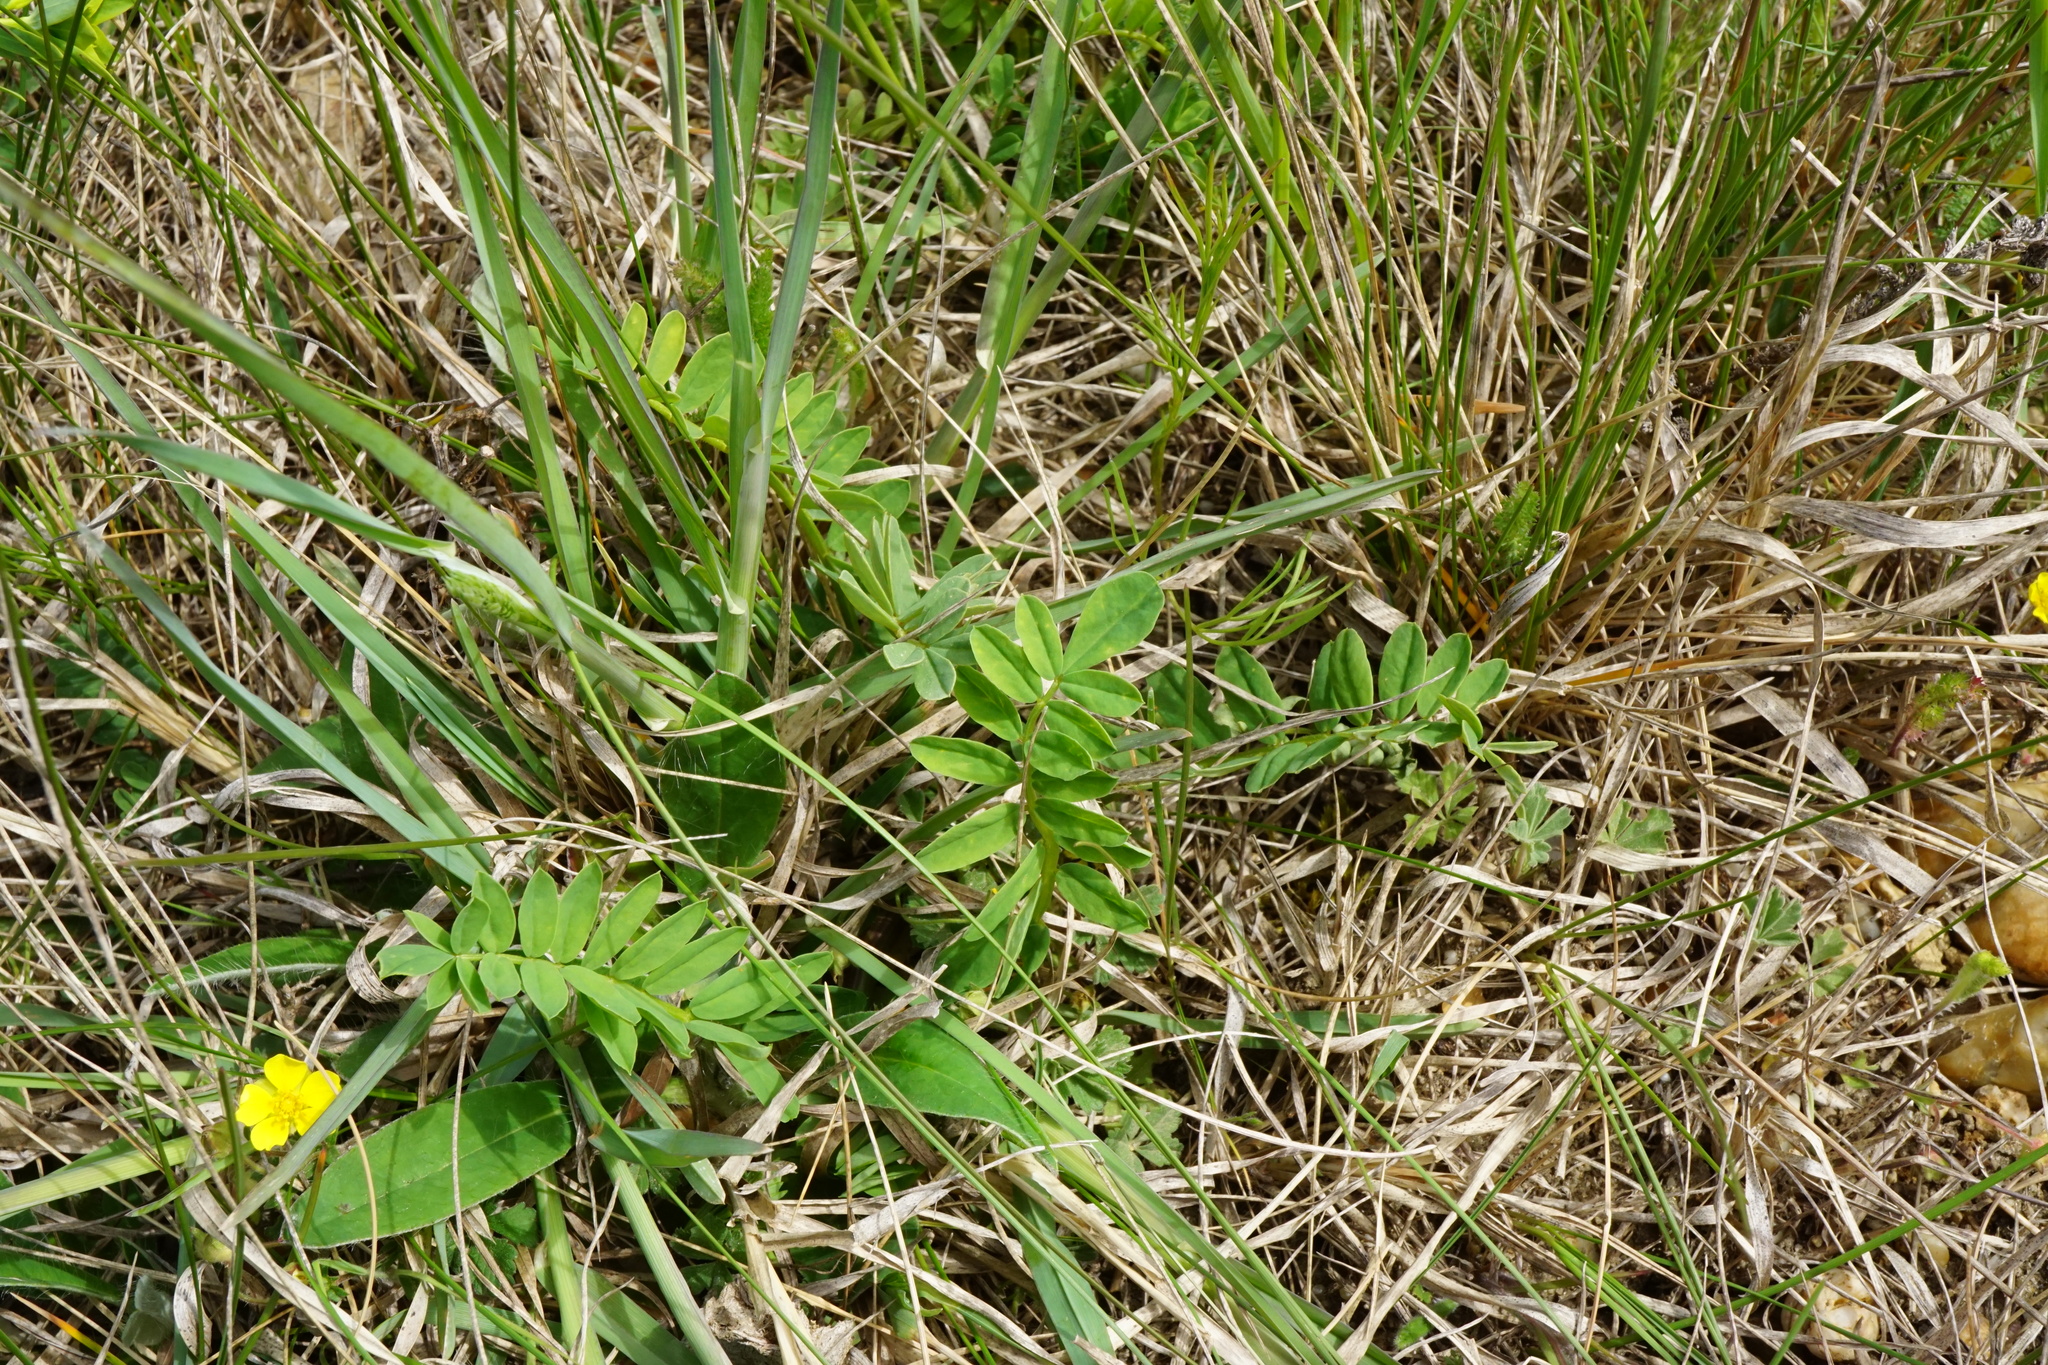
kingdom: Plantae
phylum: Tracheophyta
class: Magnoliopsida
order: Fabales
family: Fabaceae
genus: Coronilla
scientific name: Coronilla varia
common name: Crownvetch
